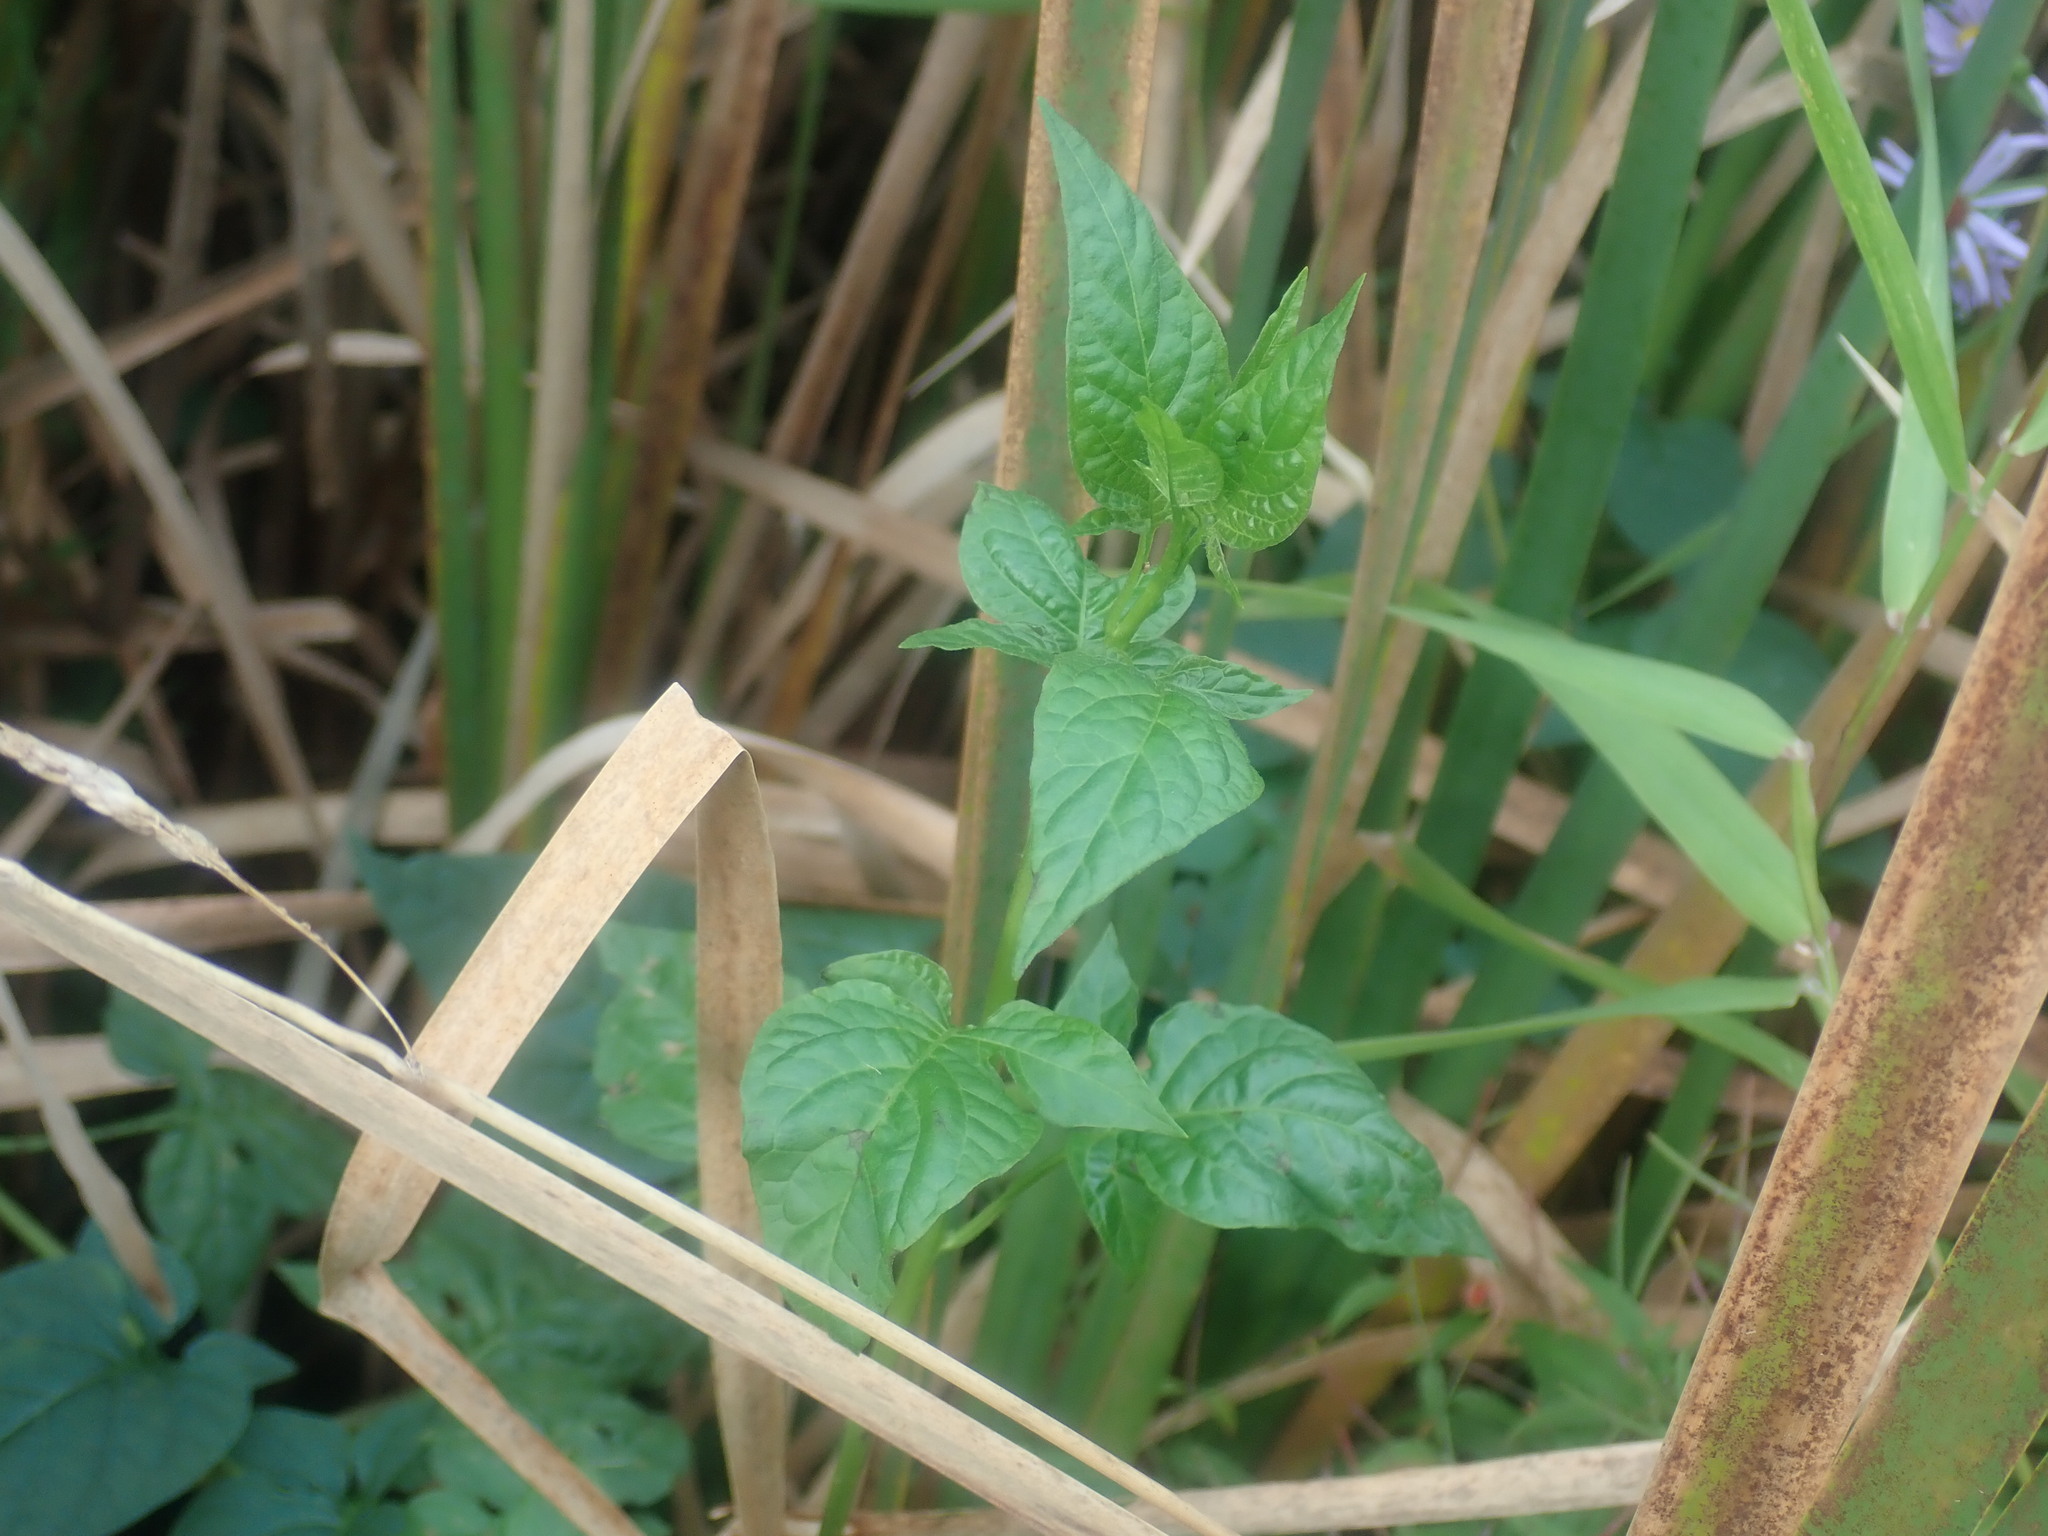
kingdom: Plantae
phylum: Tracheophyta
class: Magnoliopsida
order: Solanales
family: Solanaceae
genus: Solanum
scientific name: Solanum dulcamara
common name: Climbing nightshade
